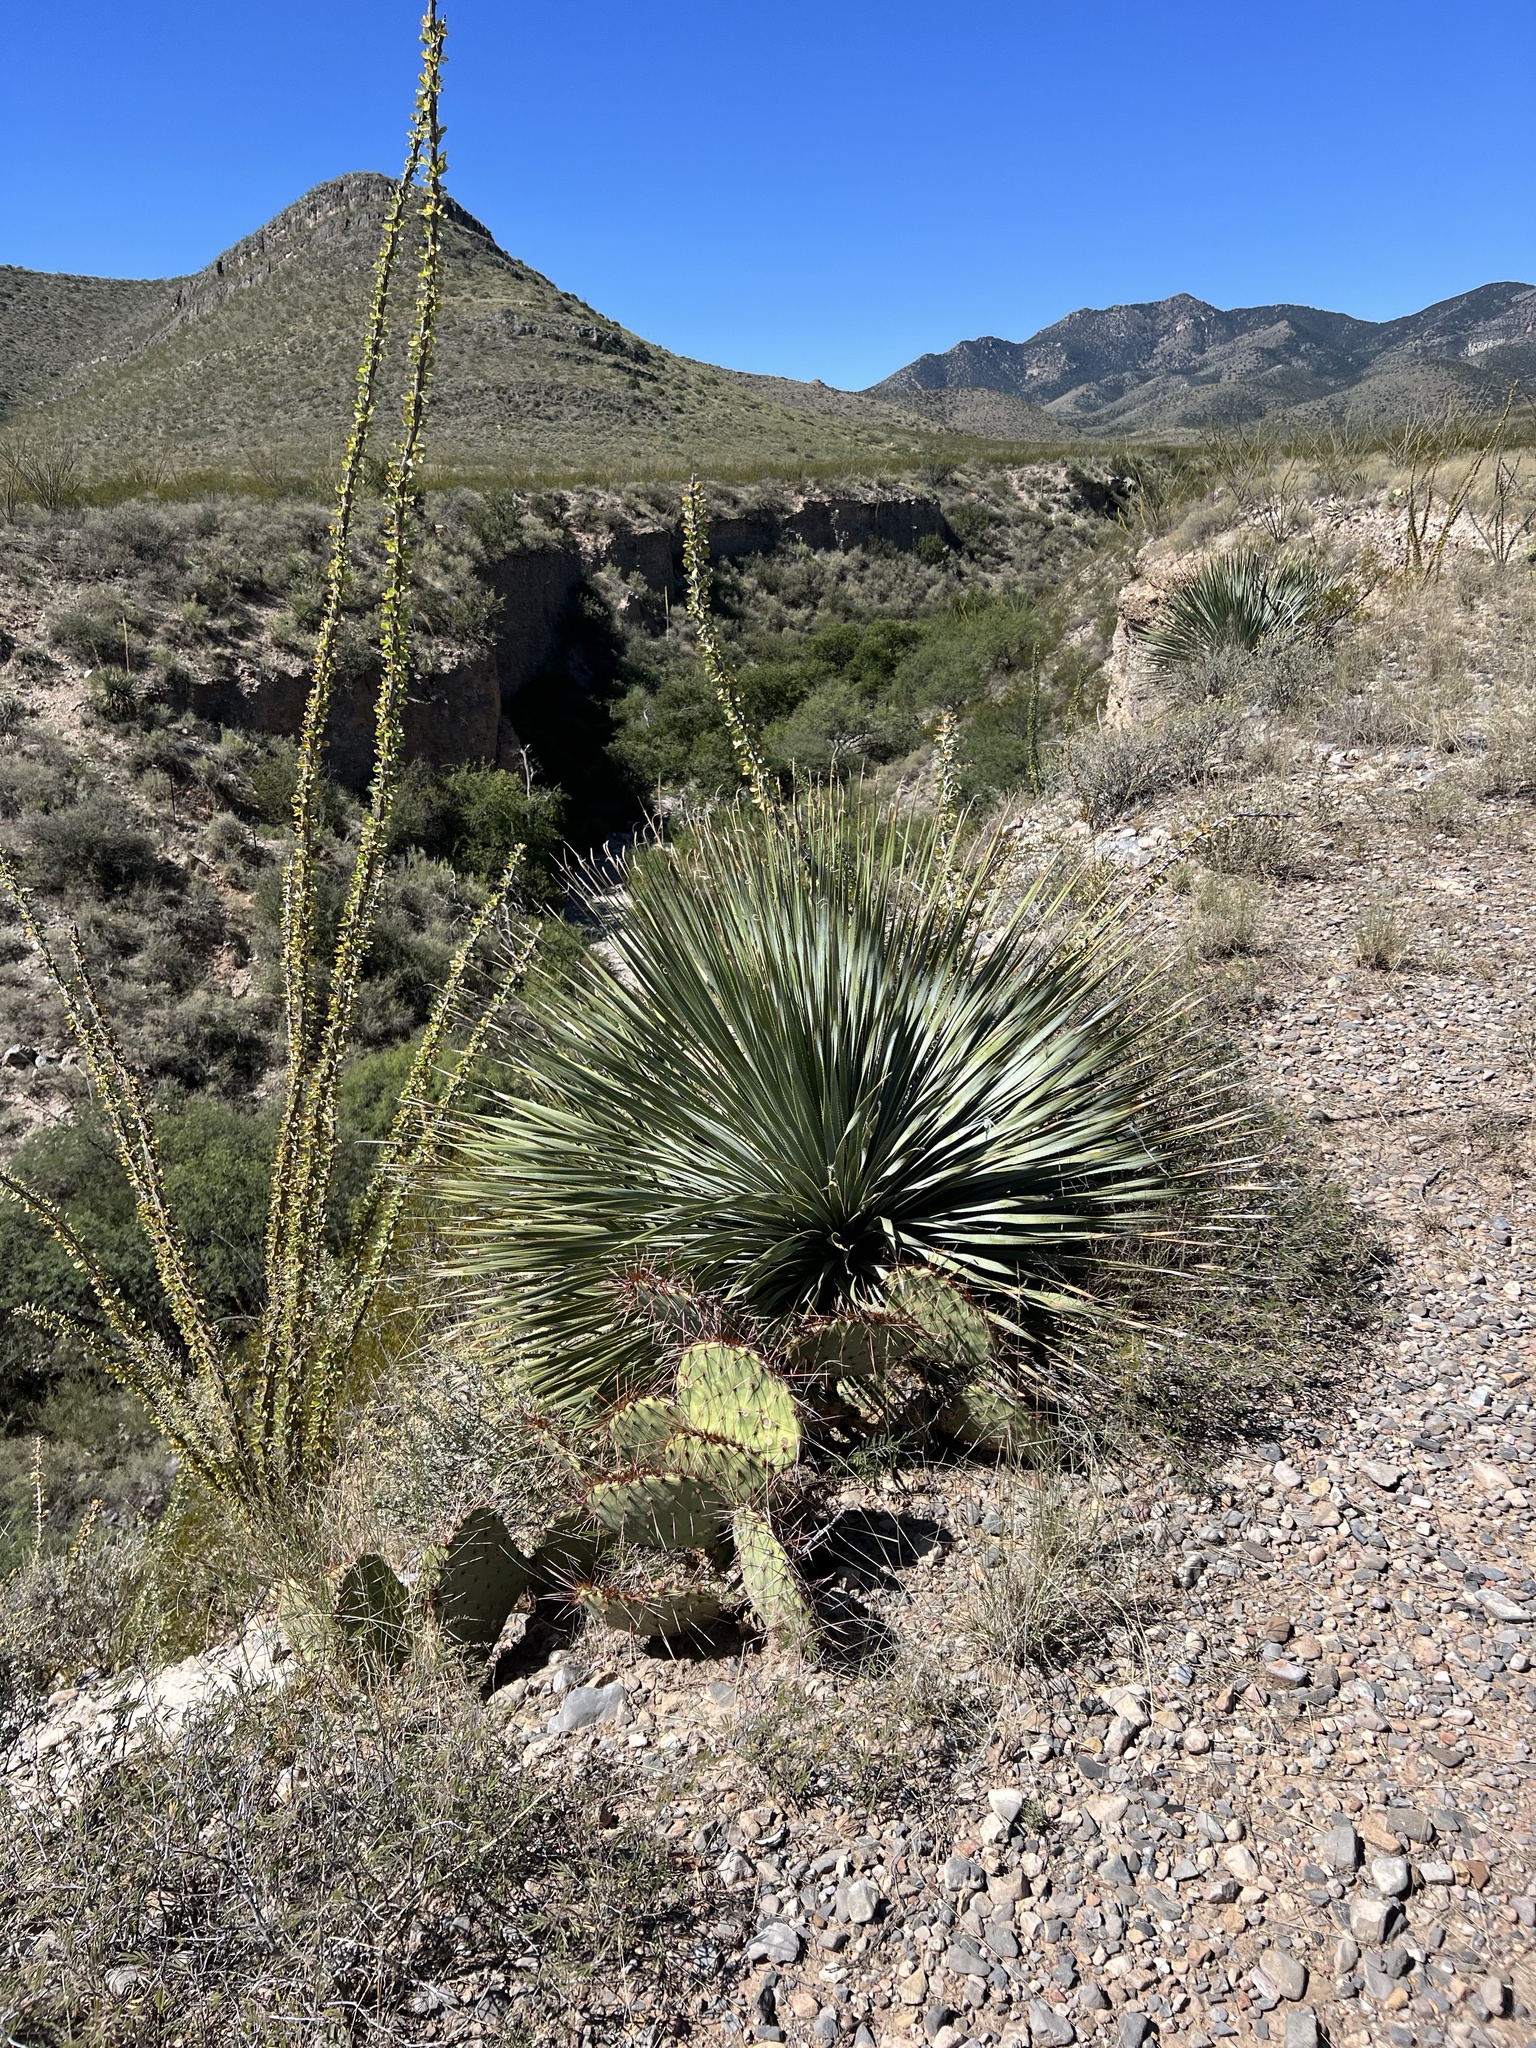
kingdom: Plantae
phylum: Tracheophyta
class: Liliopsida
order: Asparagales
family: Asparagaceae
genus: Dasylirion
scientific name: Dasylirion wheeleri
